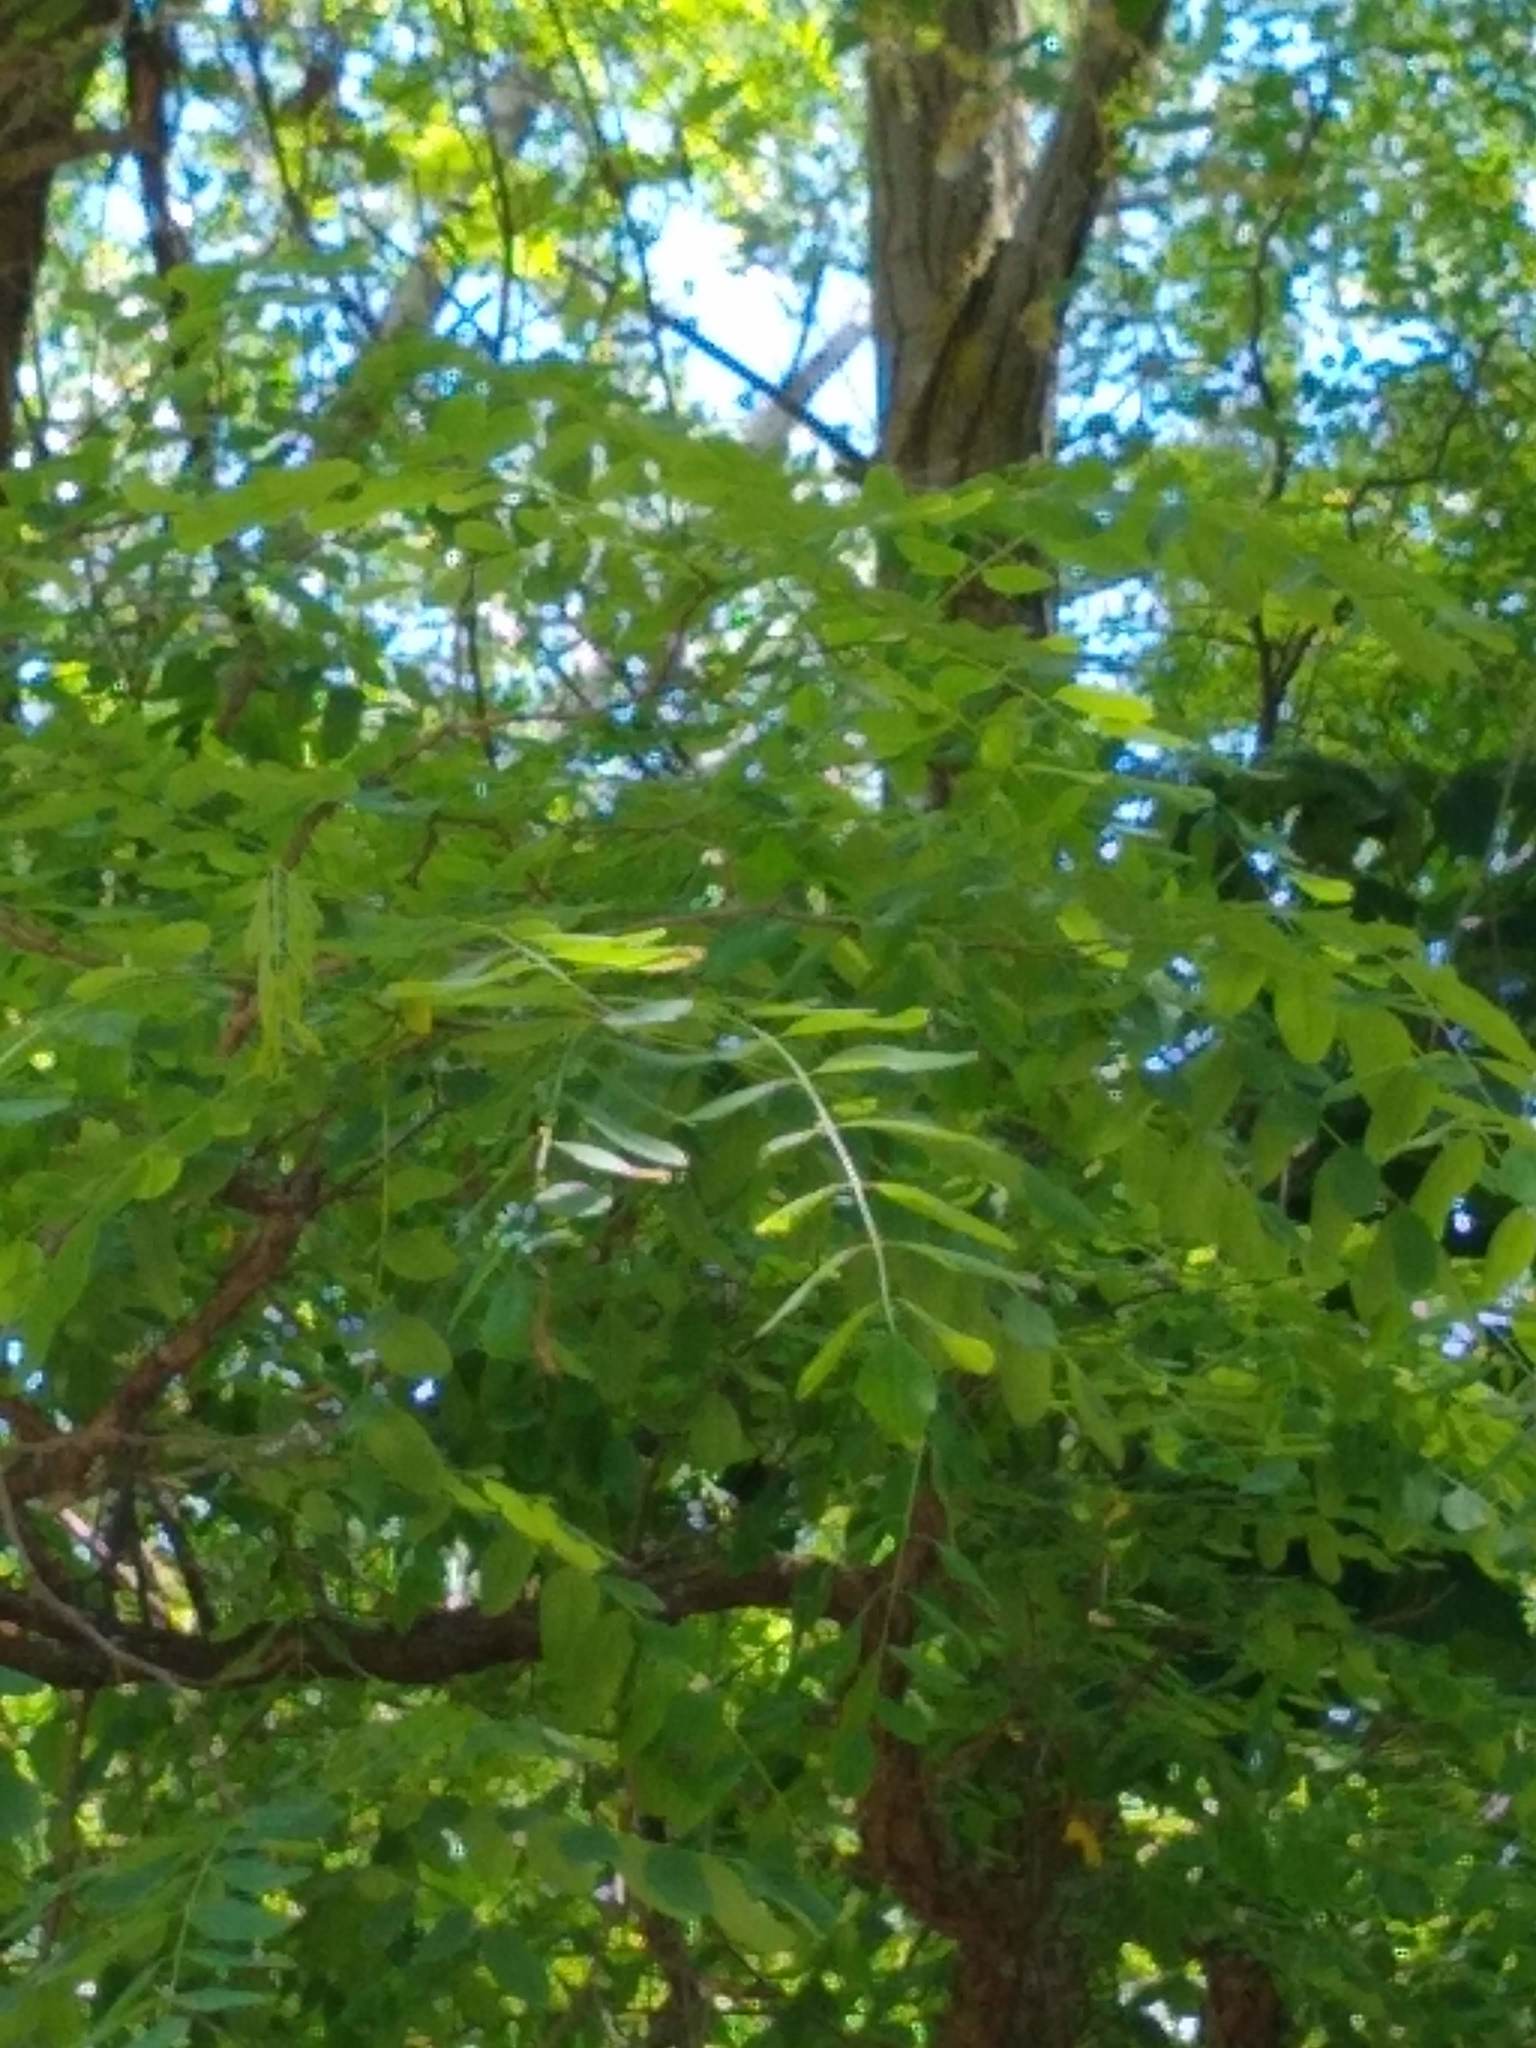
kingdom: Plantae
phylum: Tracheophyta
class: Magnoliopsida
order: Fabales
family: Fabaceae
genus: Robinia
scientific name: Robinia pseudoacacia
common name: Black locust
